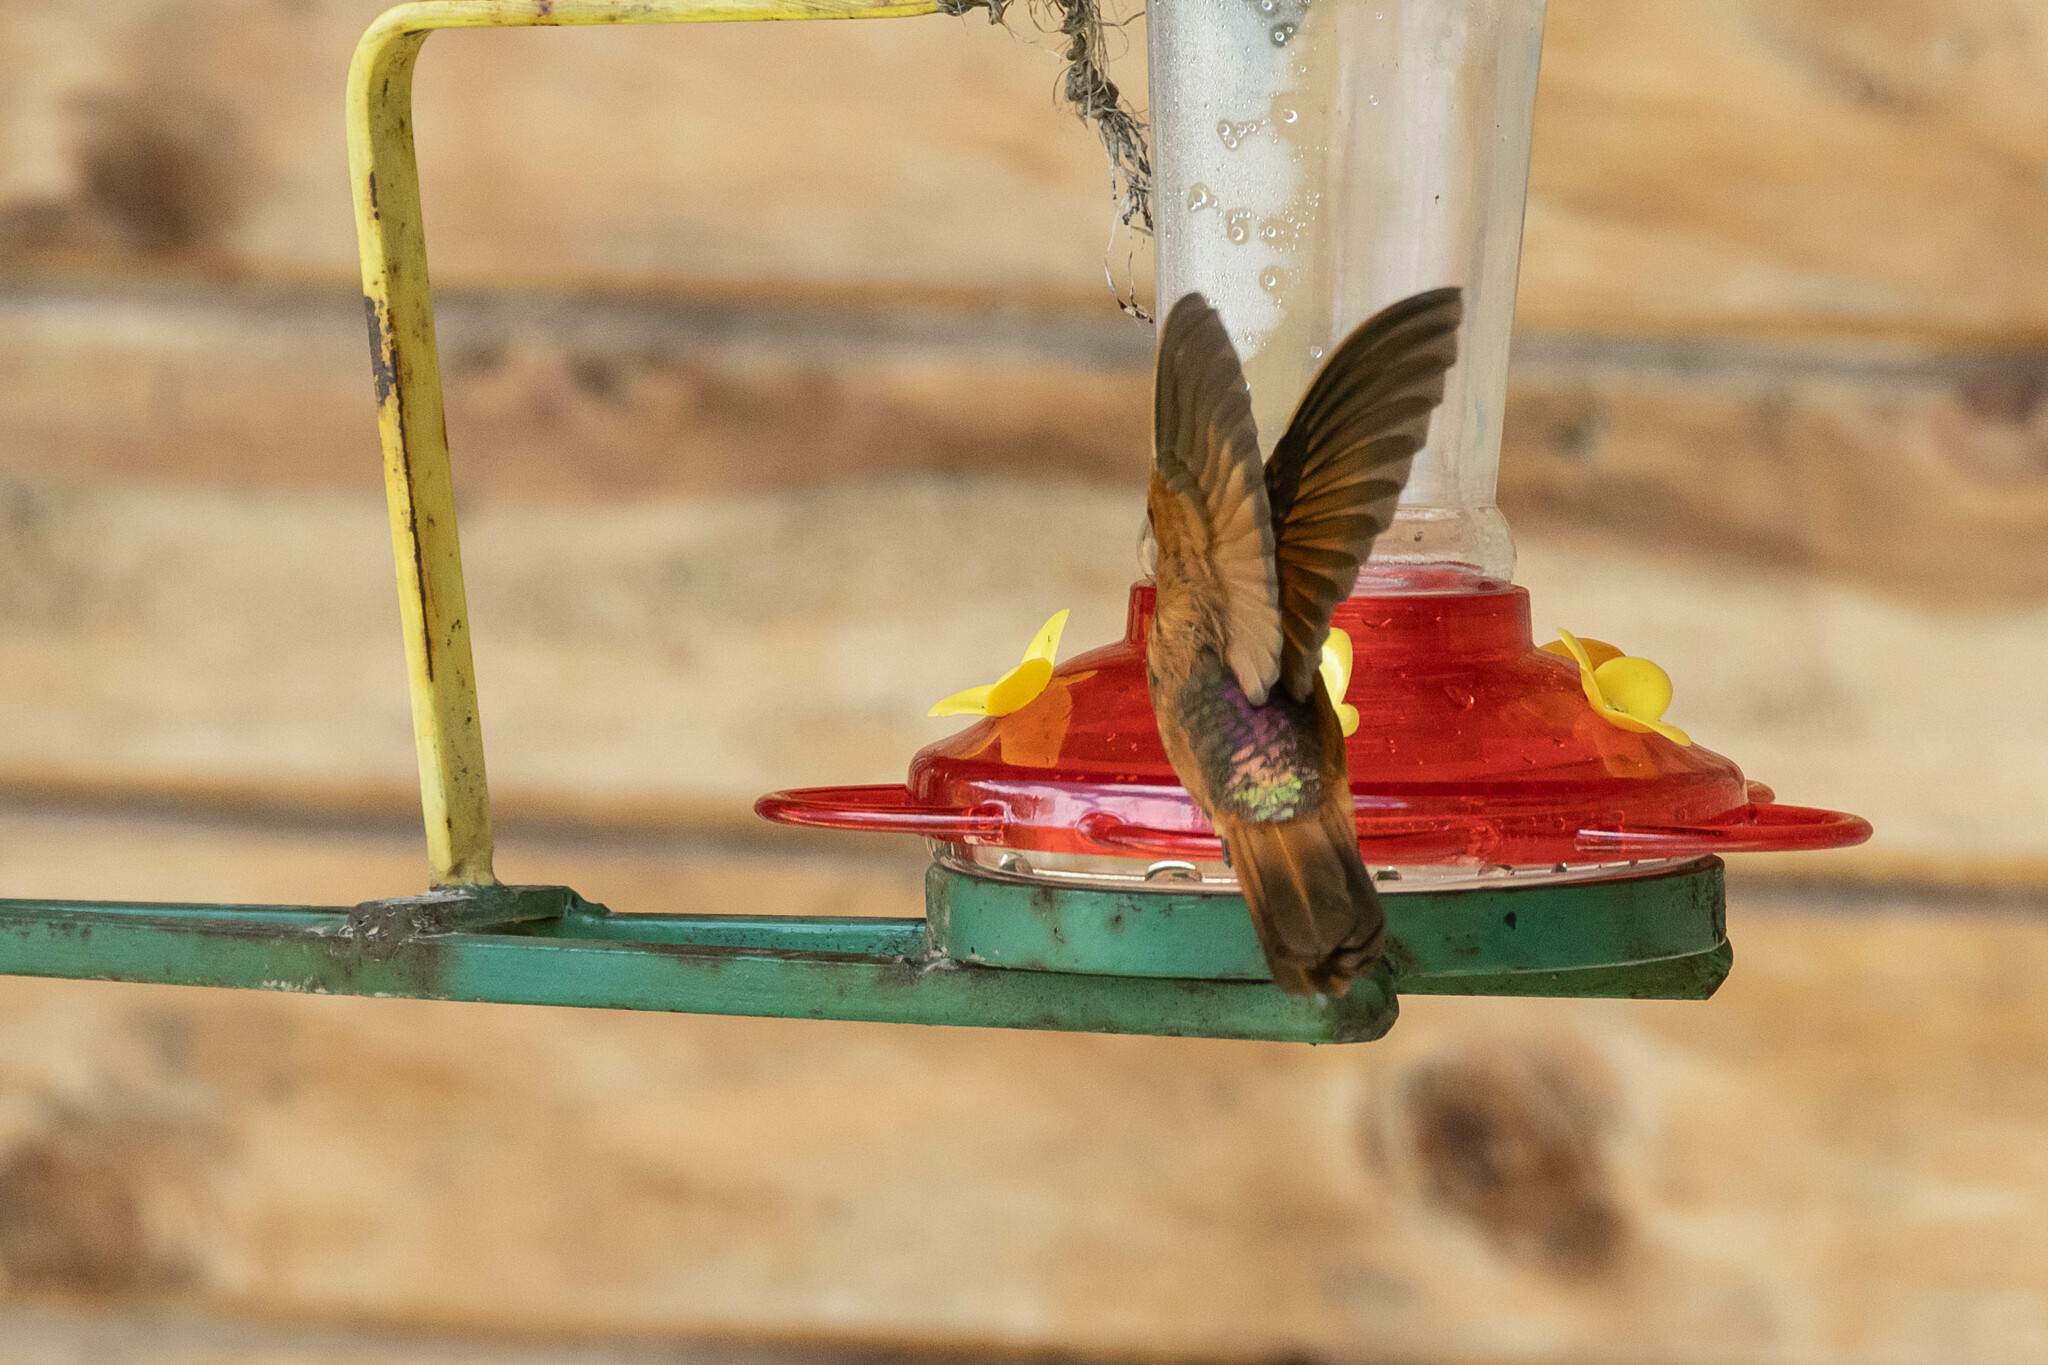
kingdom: Animalia
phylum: Chordata
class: Aves
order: Apodiformes
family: Trochilidae
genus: Aglaeactis
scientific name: Aglaeactis cupripennis
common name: Shining sunbeam
